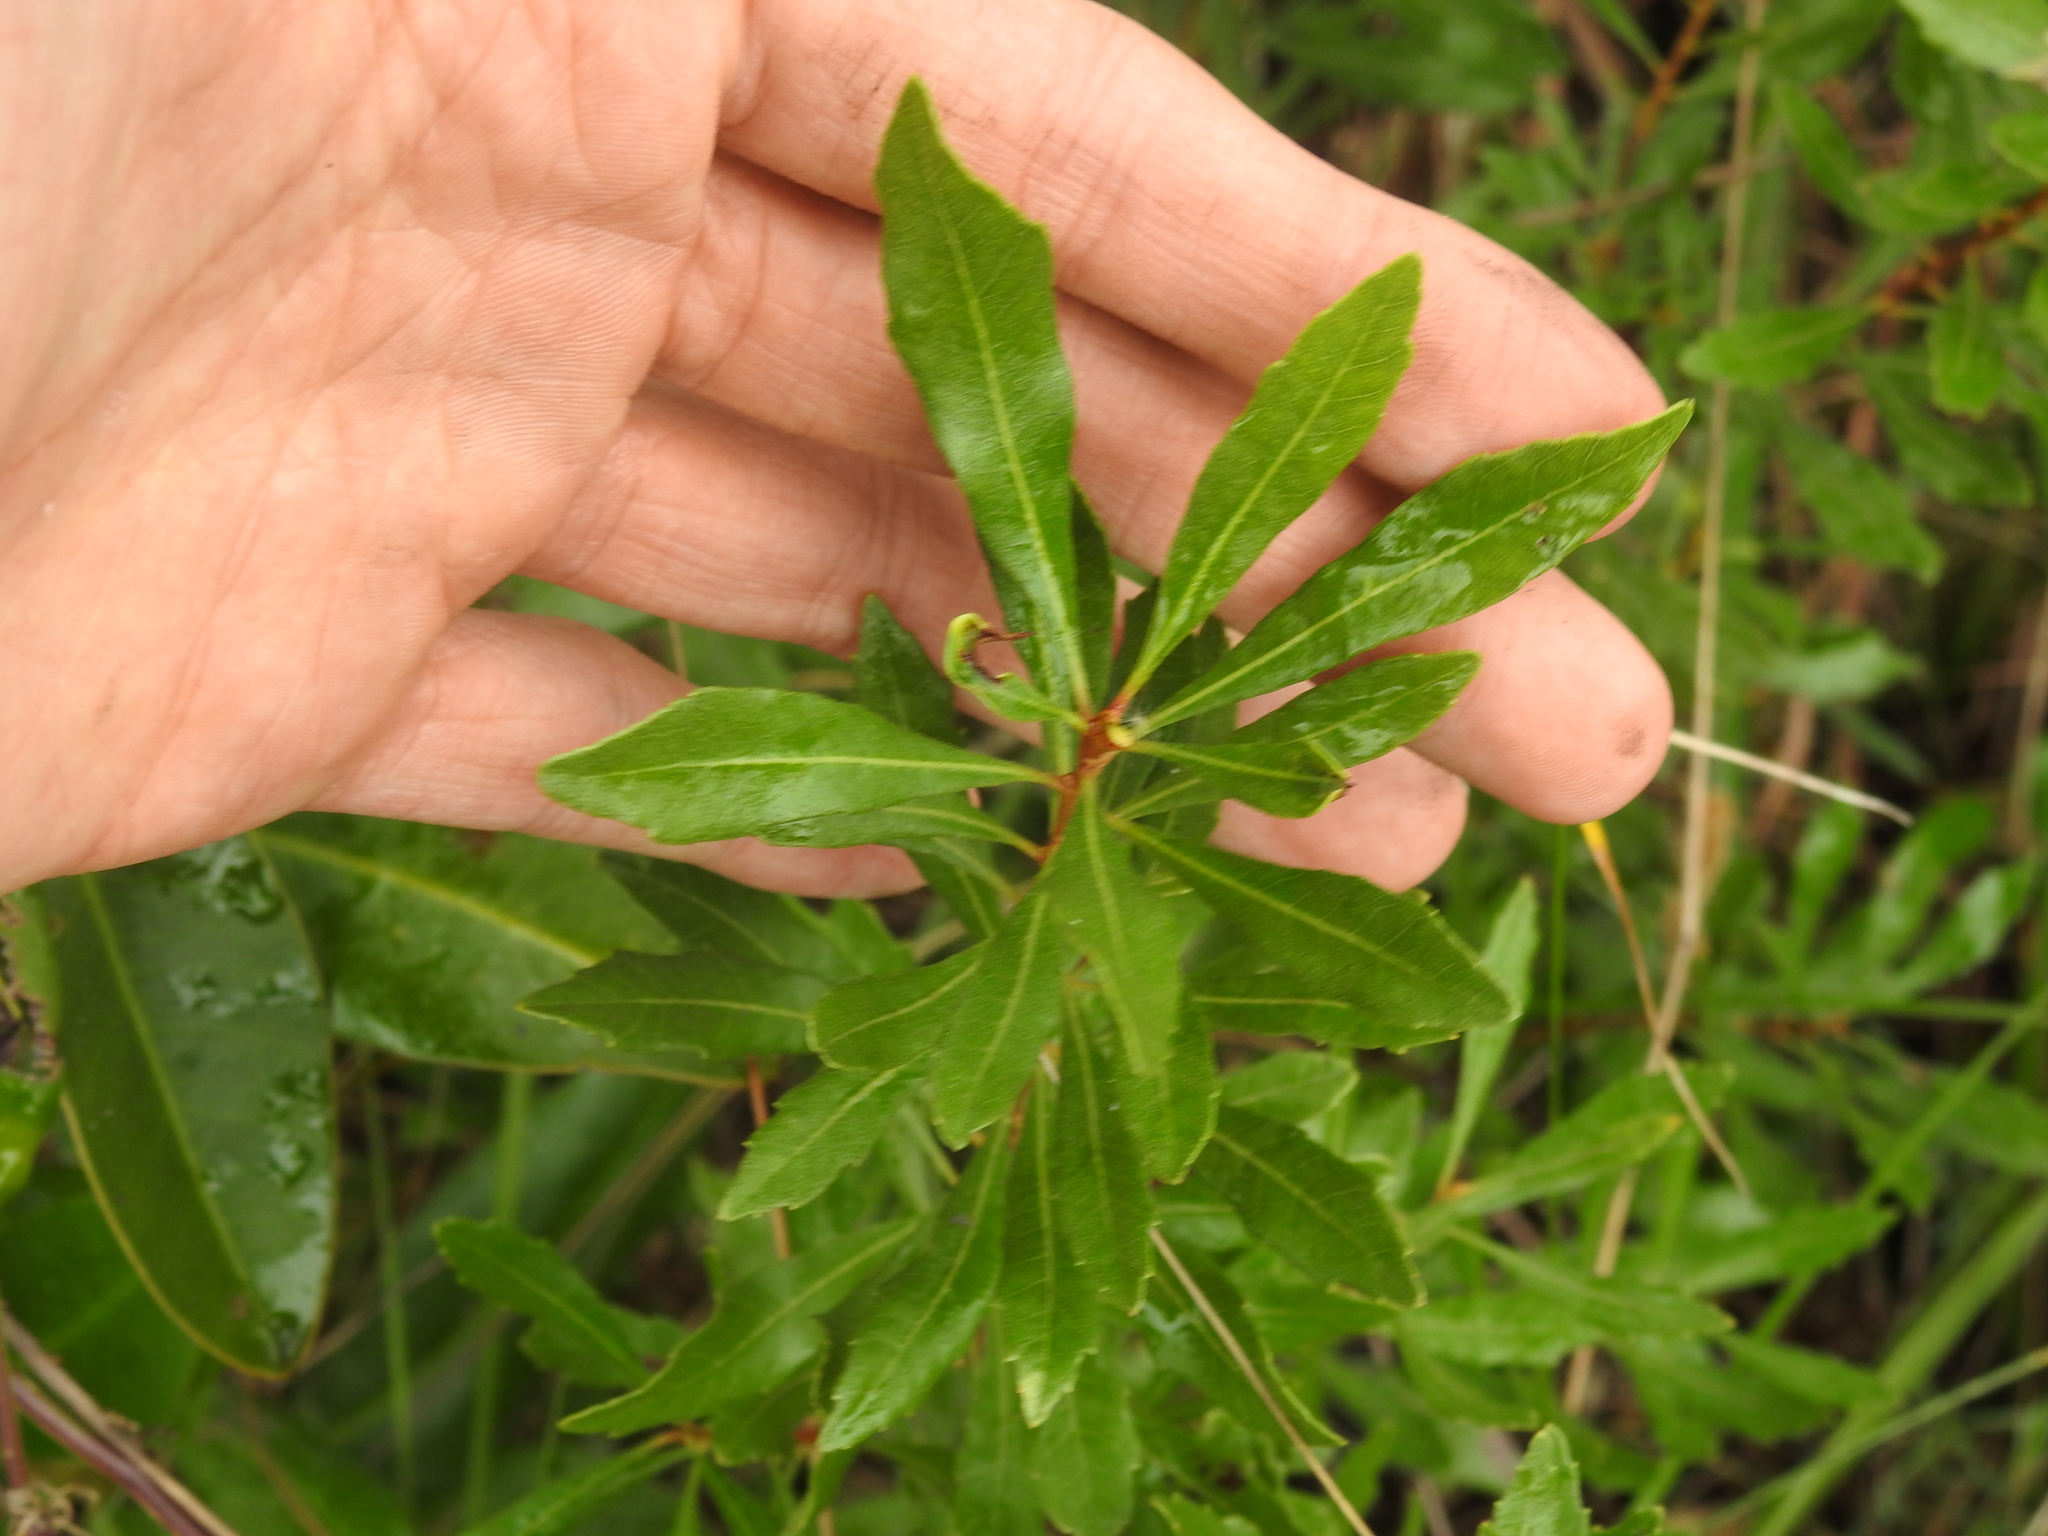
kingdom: Plantae
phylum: Tracheophyta
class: Magnoliopsida
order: Fagales
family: Myricaceae
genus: Morella
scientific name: Morella cerifera
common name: Wax myrtle
